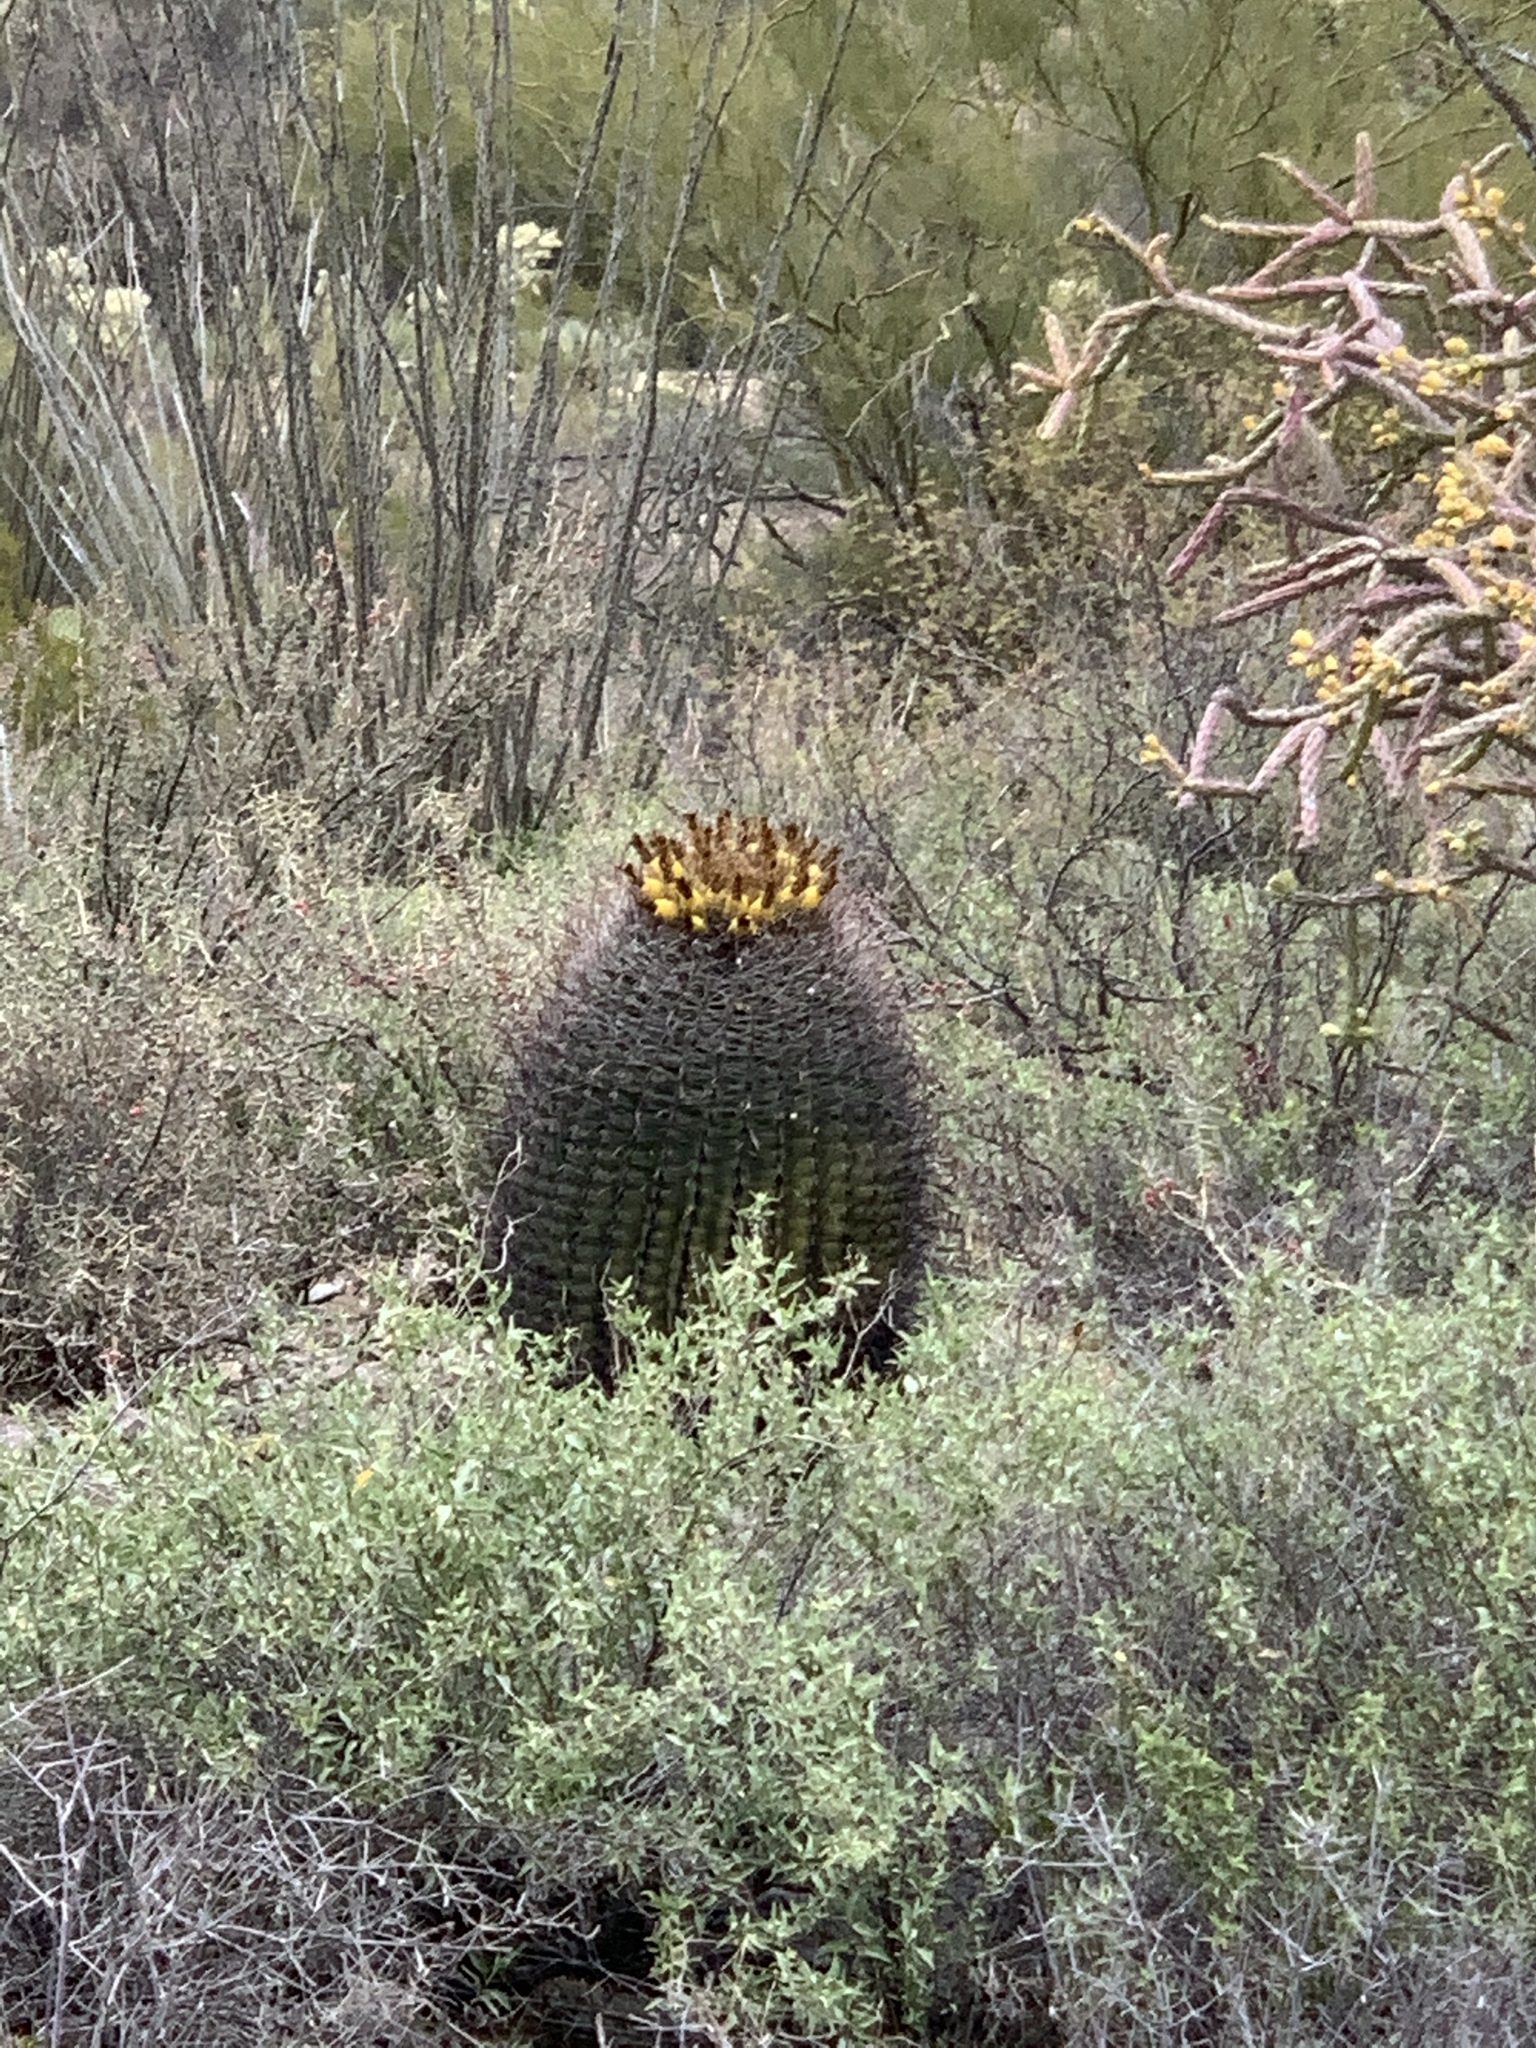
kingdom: Plantae
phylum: Tracheophyta
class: Magnoliopsida
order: Caryophyllales
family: Cactaceae
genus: Ferocactus
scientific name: Ferocactus wislizeni
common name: Candy barrel cactus
